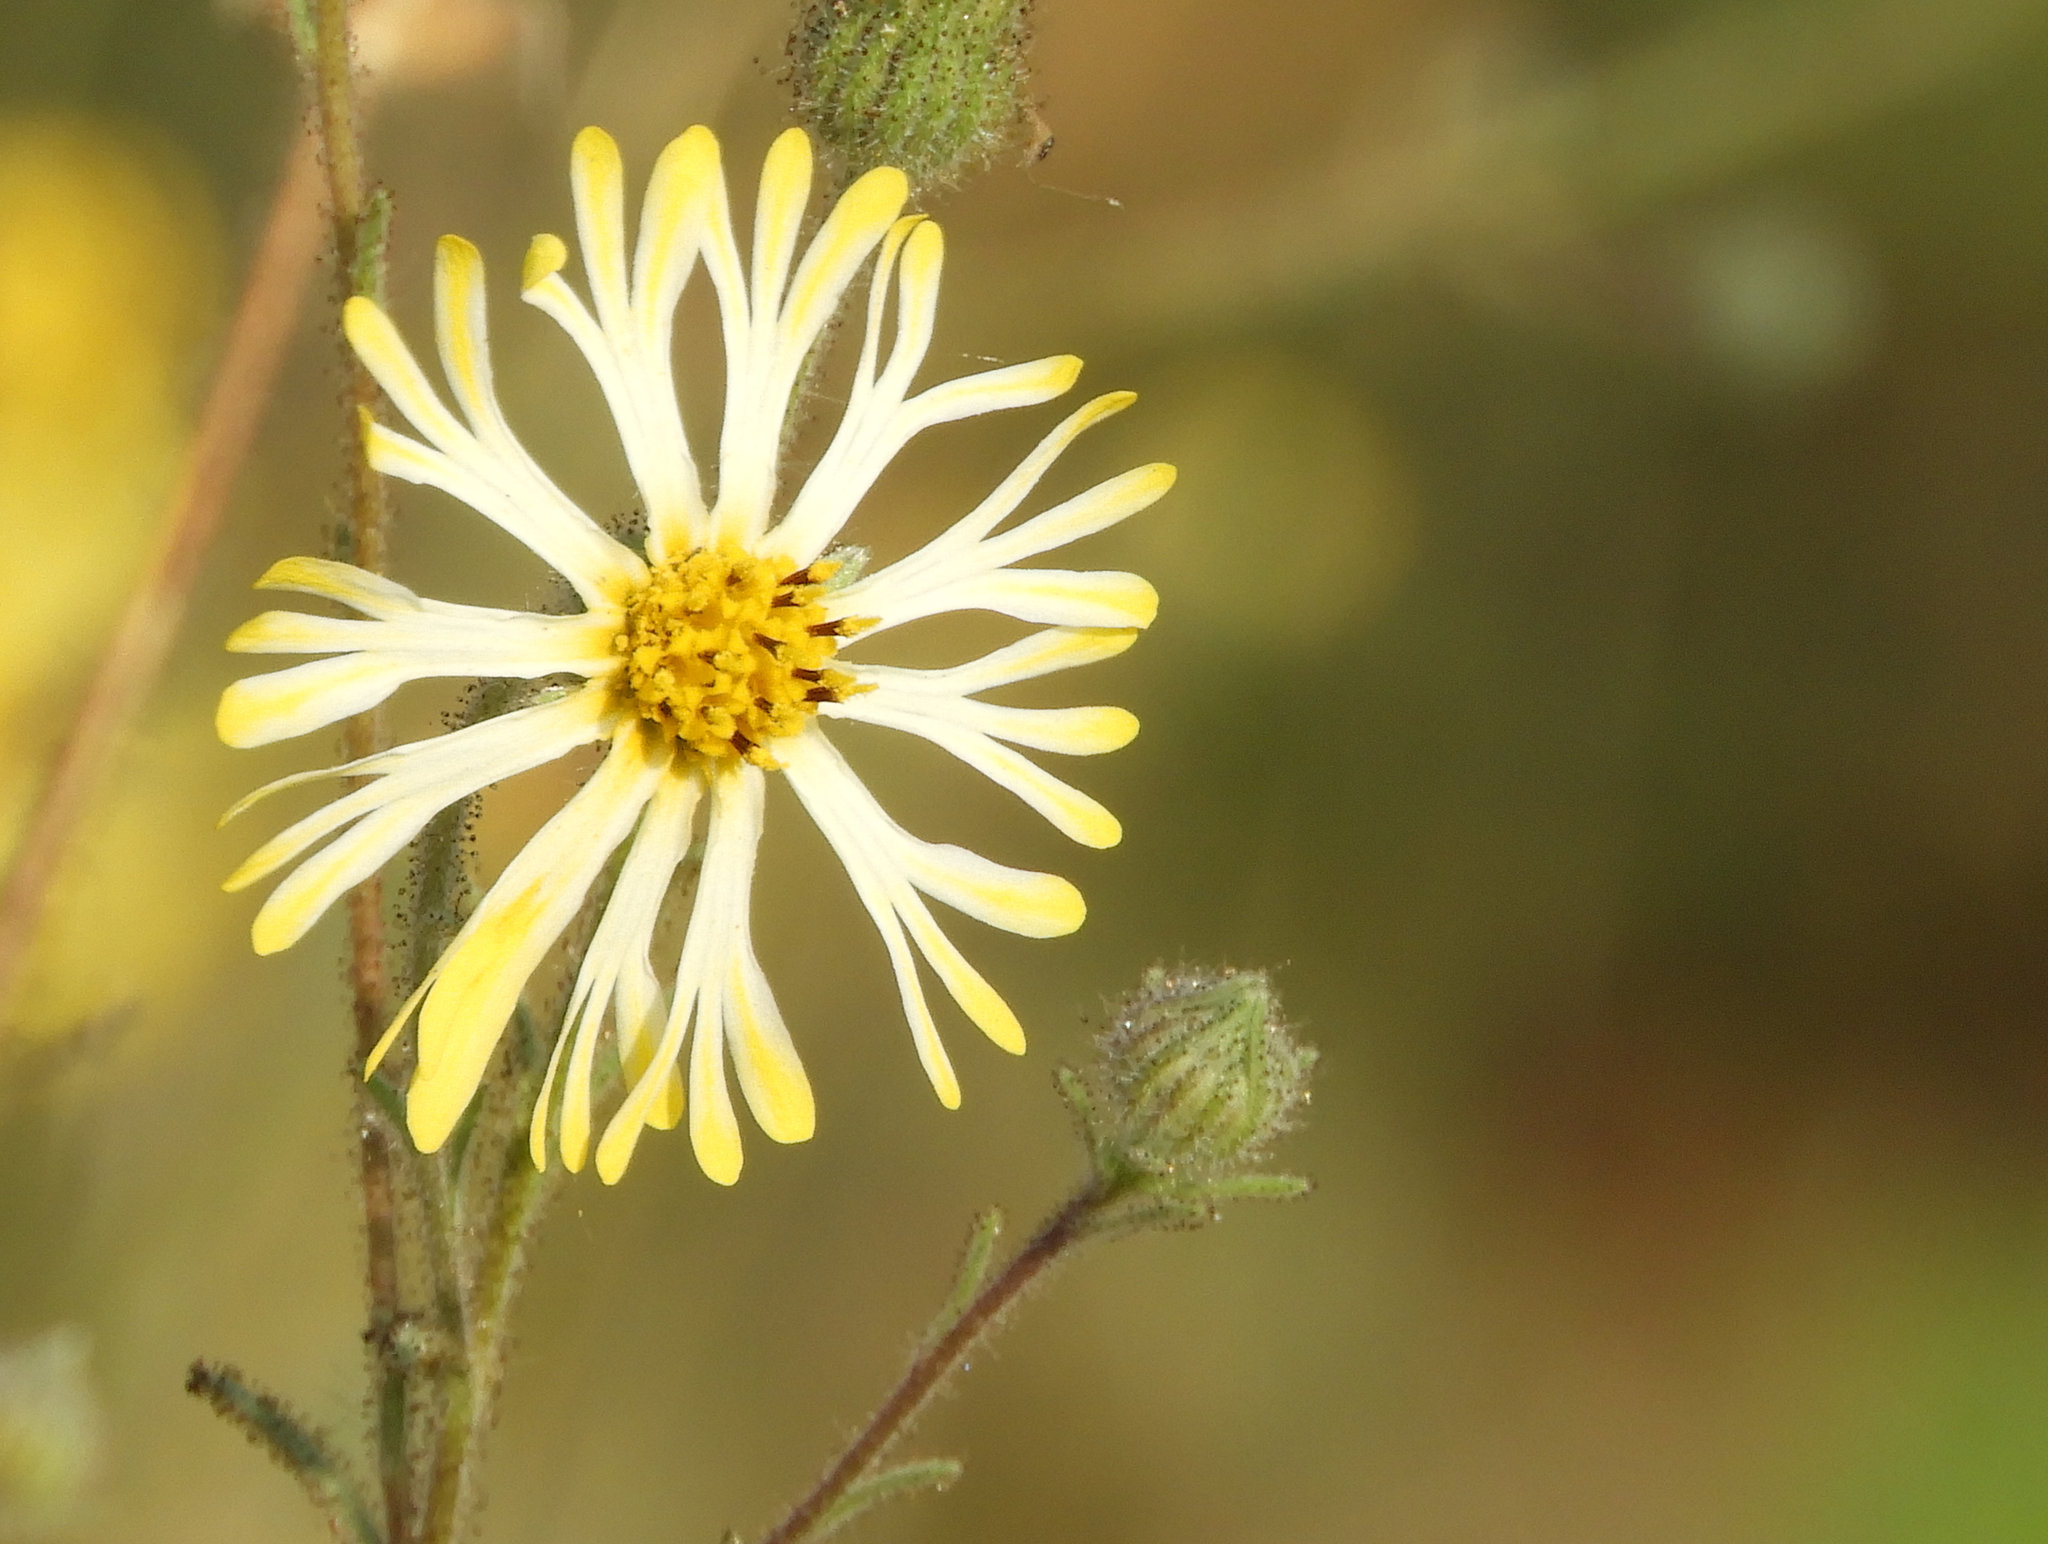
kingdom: Plantae
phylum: Tracheophyta
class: Magnoliopsida
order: Asterales
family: Asteraceae
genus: Madia
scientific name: Madia elegans
